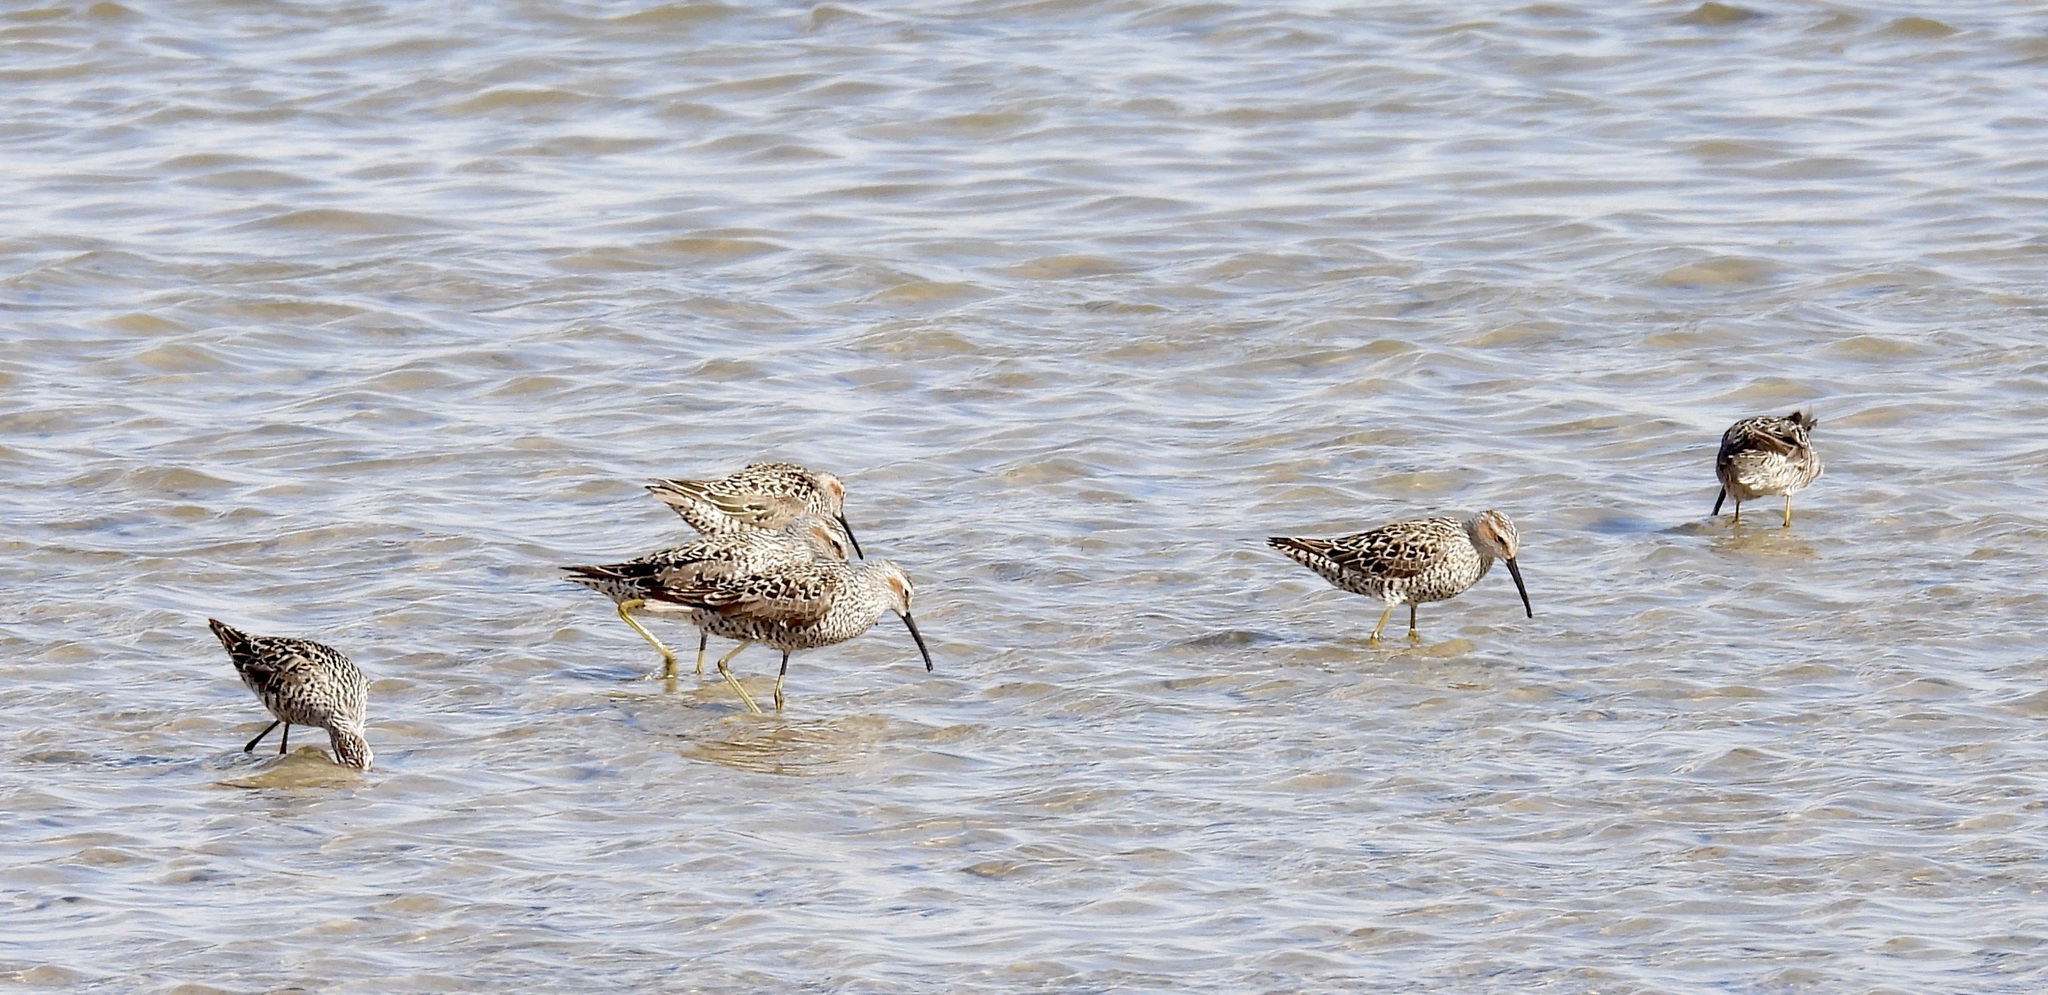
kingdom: Animalia
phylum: Chordata
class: Aves
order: Charadriiformes
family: Scolopacidae
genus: Calidris
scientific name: Calidris himantopus
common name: Stilt sandpiper
